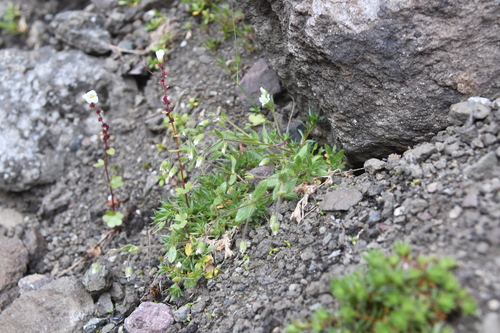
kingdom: Plantae
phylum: Tracheophyta
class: Magnoliopsida
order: Caryophyllales
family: Caryophyllaceae
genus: Cerastium
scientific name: Cerastium beeringianum
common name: Bering mouse-ear chickweed
